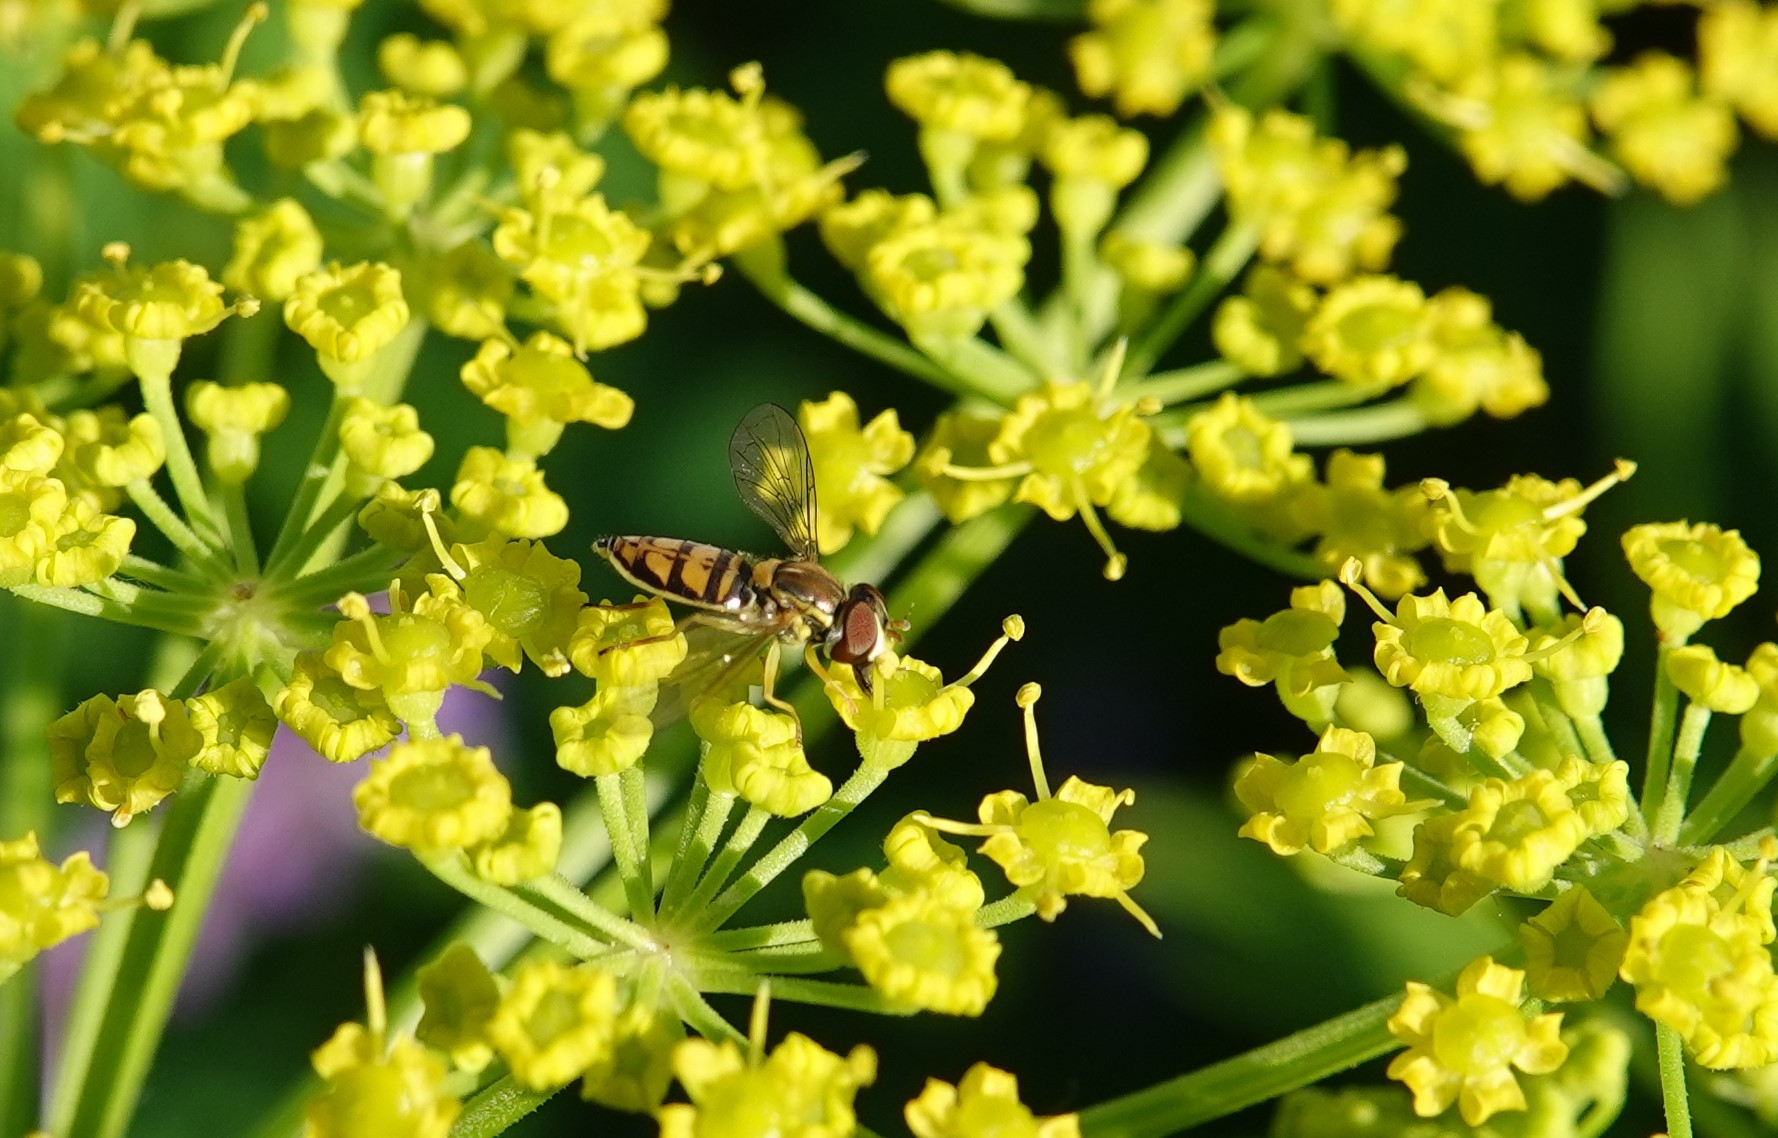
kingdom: Animalia
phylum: Arthropoda
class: Insecta
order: Diptera
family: Syrphidae
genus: Toxomerus
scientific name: Toxomerus marginatus
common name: Syrphid fly
